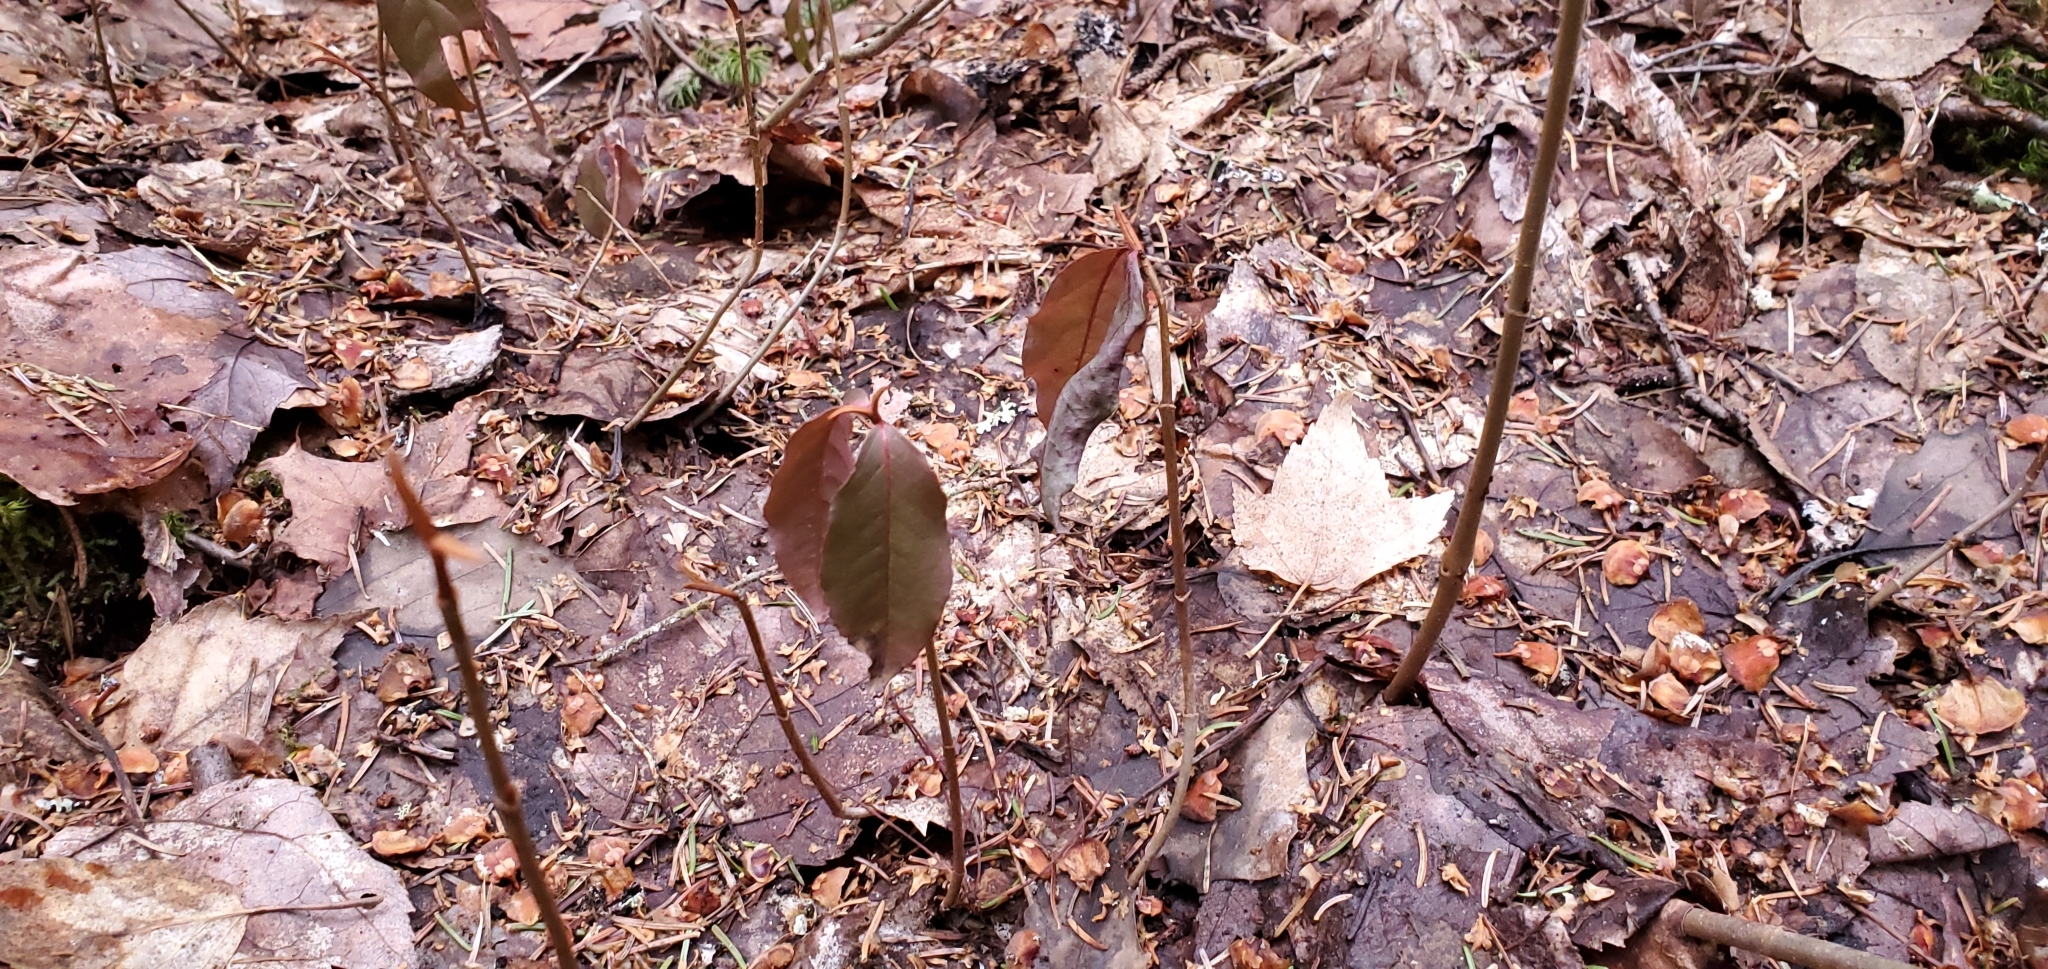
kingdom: Plantae
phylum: Tracheophyta
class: Magnoliopsida
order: Dipsacales
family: Viburnaceae
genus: Viburnum
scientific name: Viburnum cassinoides
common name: Swamp haw
